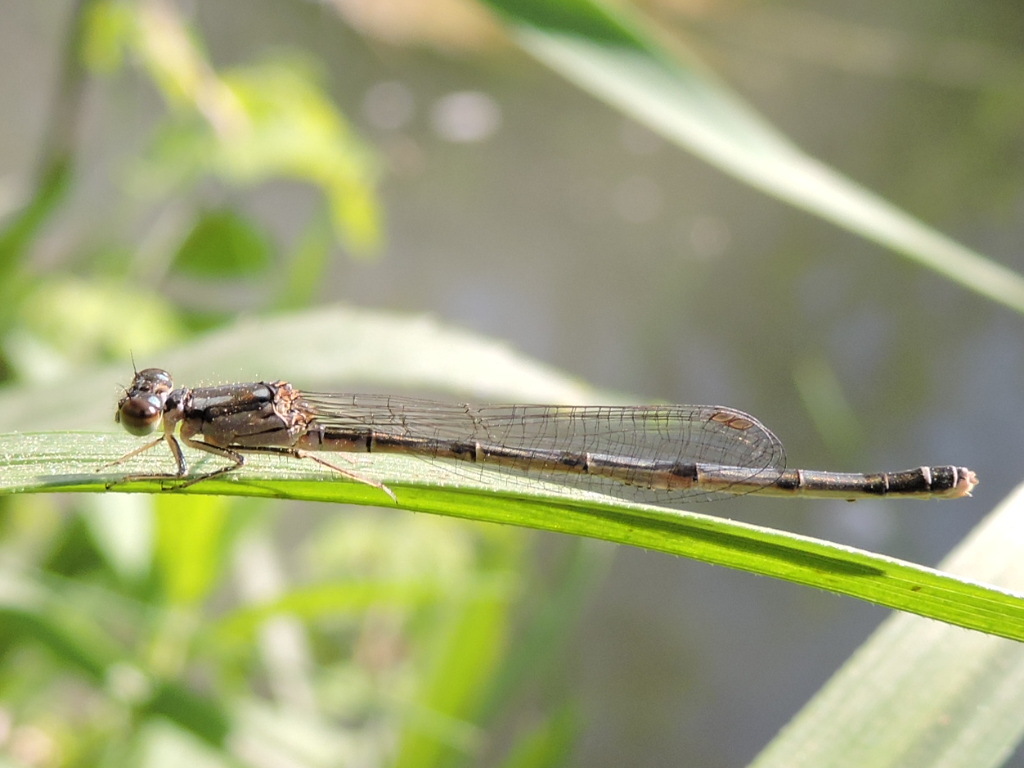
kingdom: Animalia
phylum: Arthropoda
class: Insecta
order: Odonata
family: Coenagrionidae
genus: Ischnura
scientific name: Ischnura posita
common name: Fragile forktail
